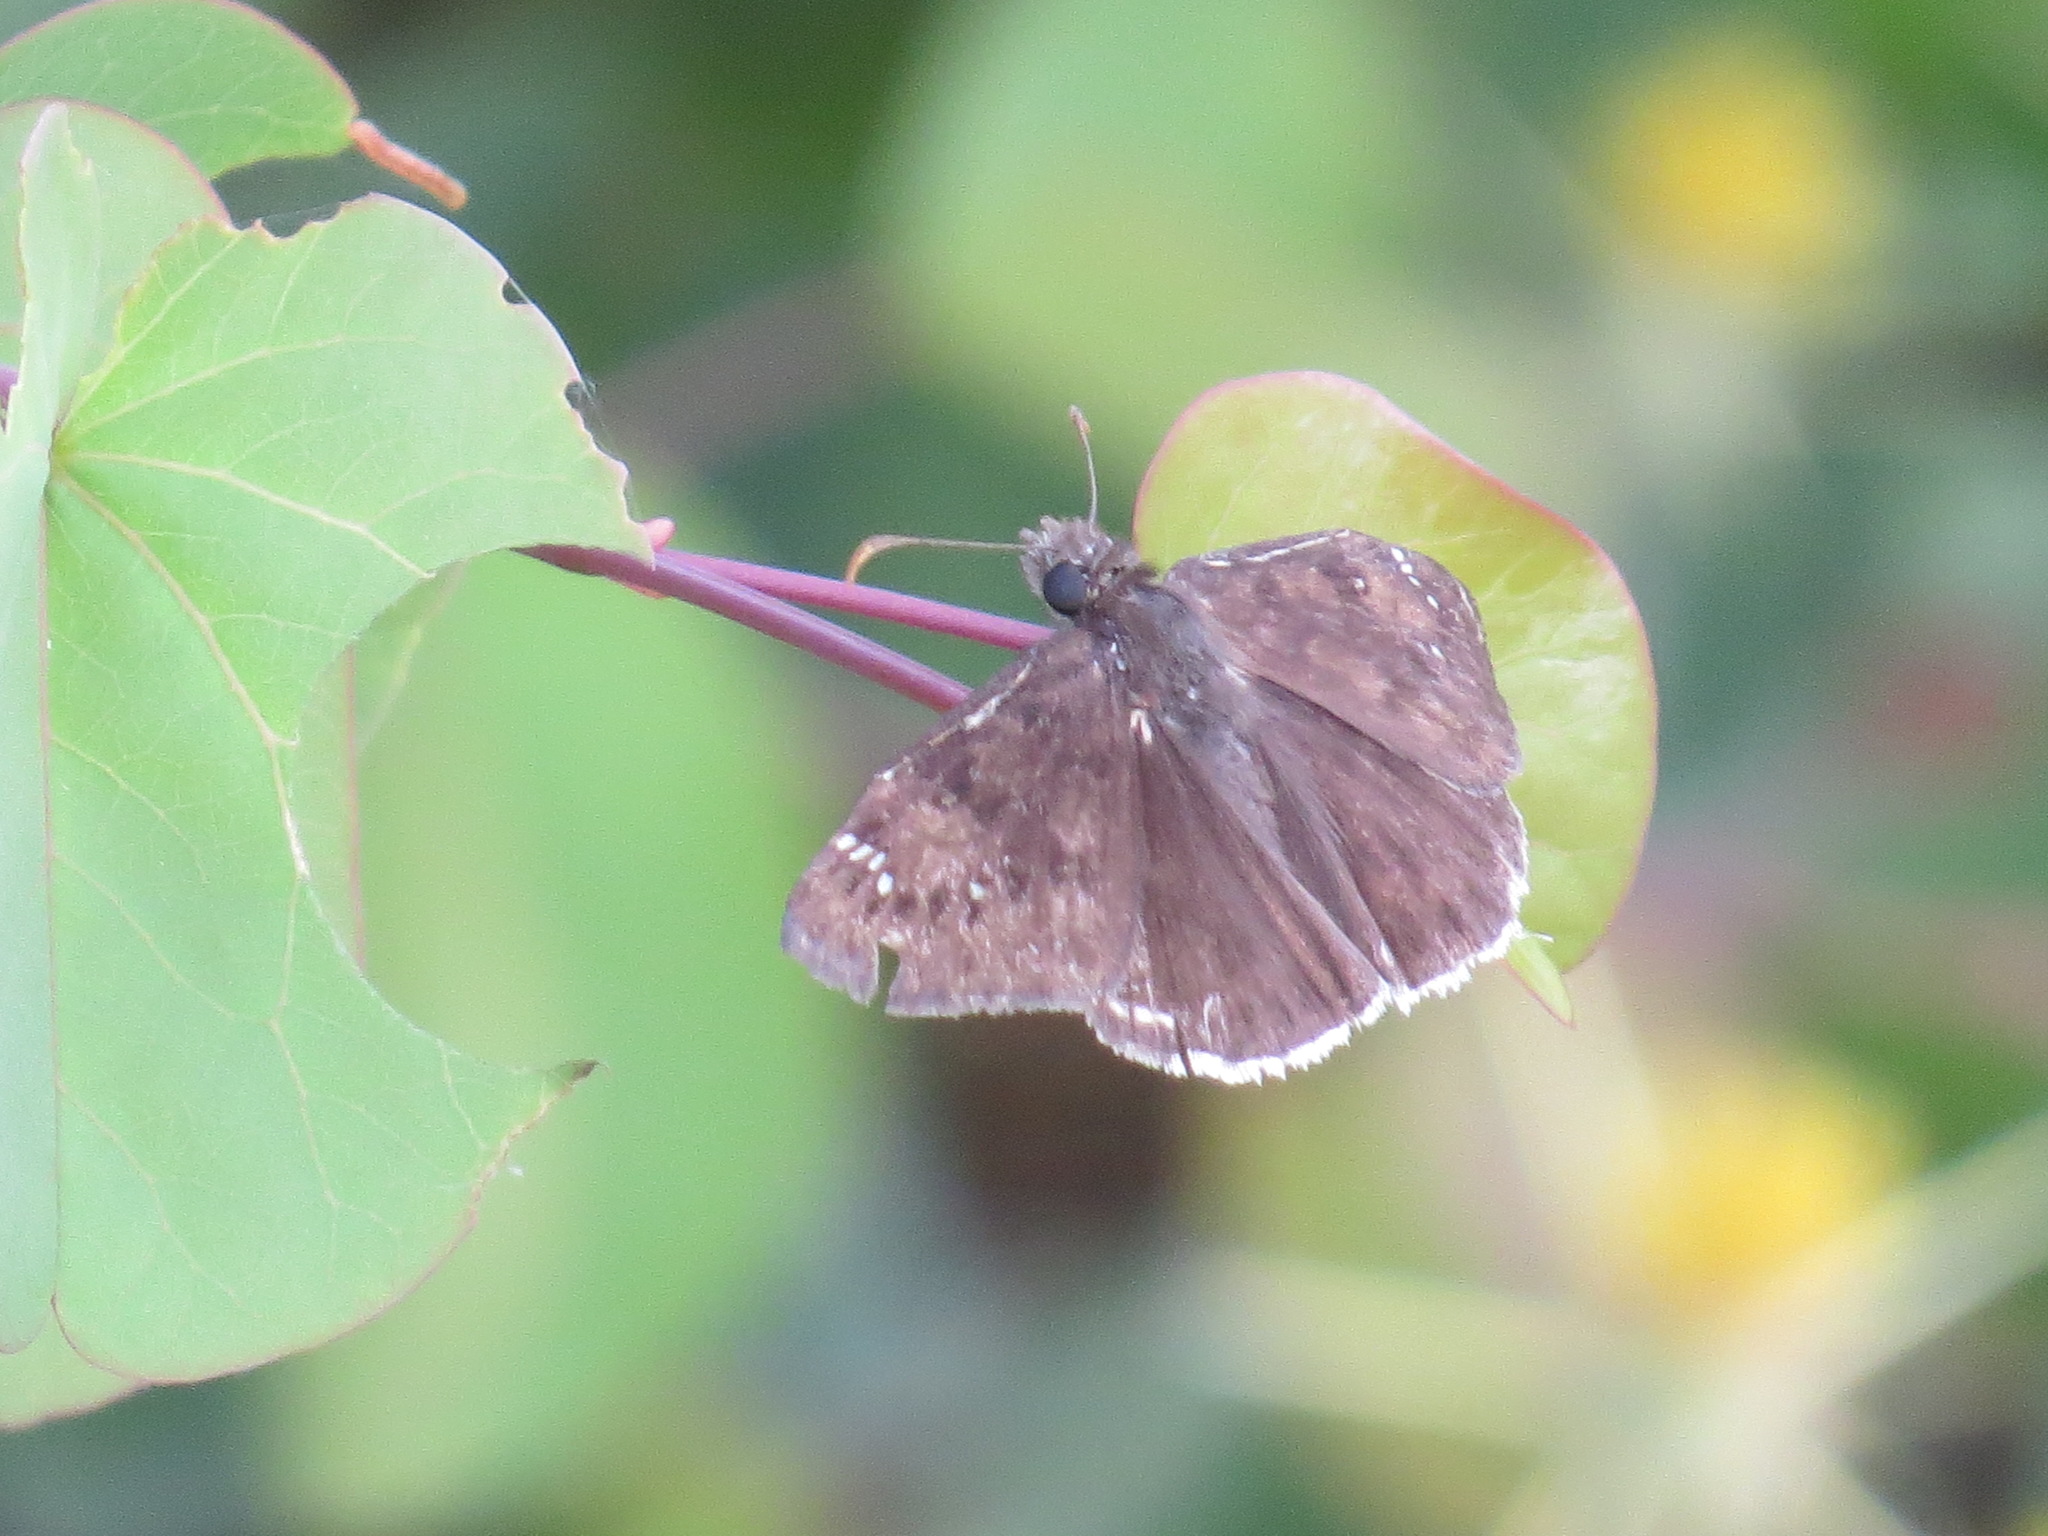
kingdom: Animalia
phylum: Arthropoda
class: Insecta
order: Lepidoptera
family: Hesperiidae
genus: Erynnis
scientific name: Erynnis tristis
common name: Mournful duskywing
